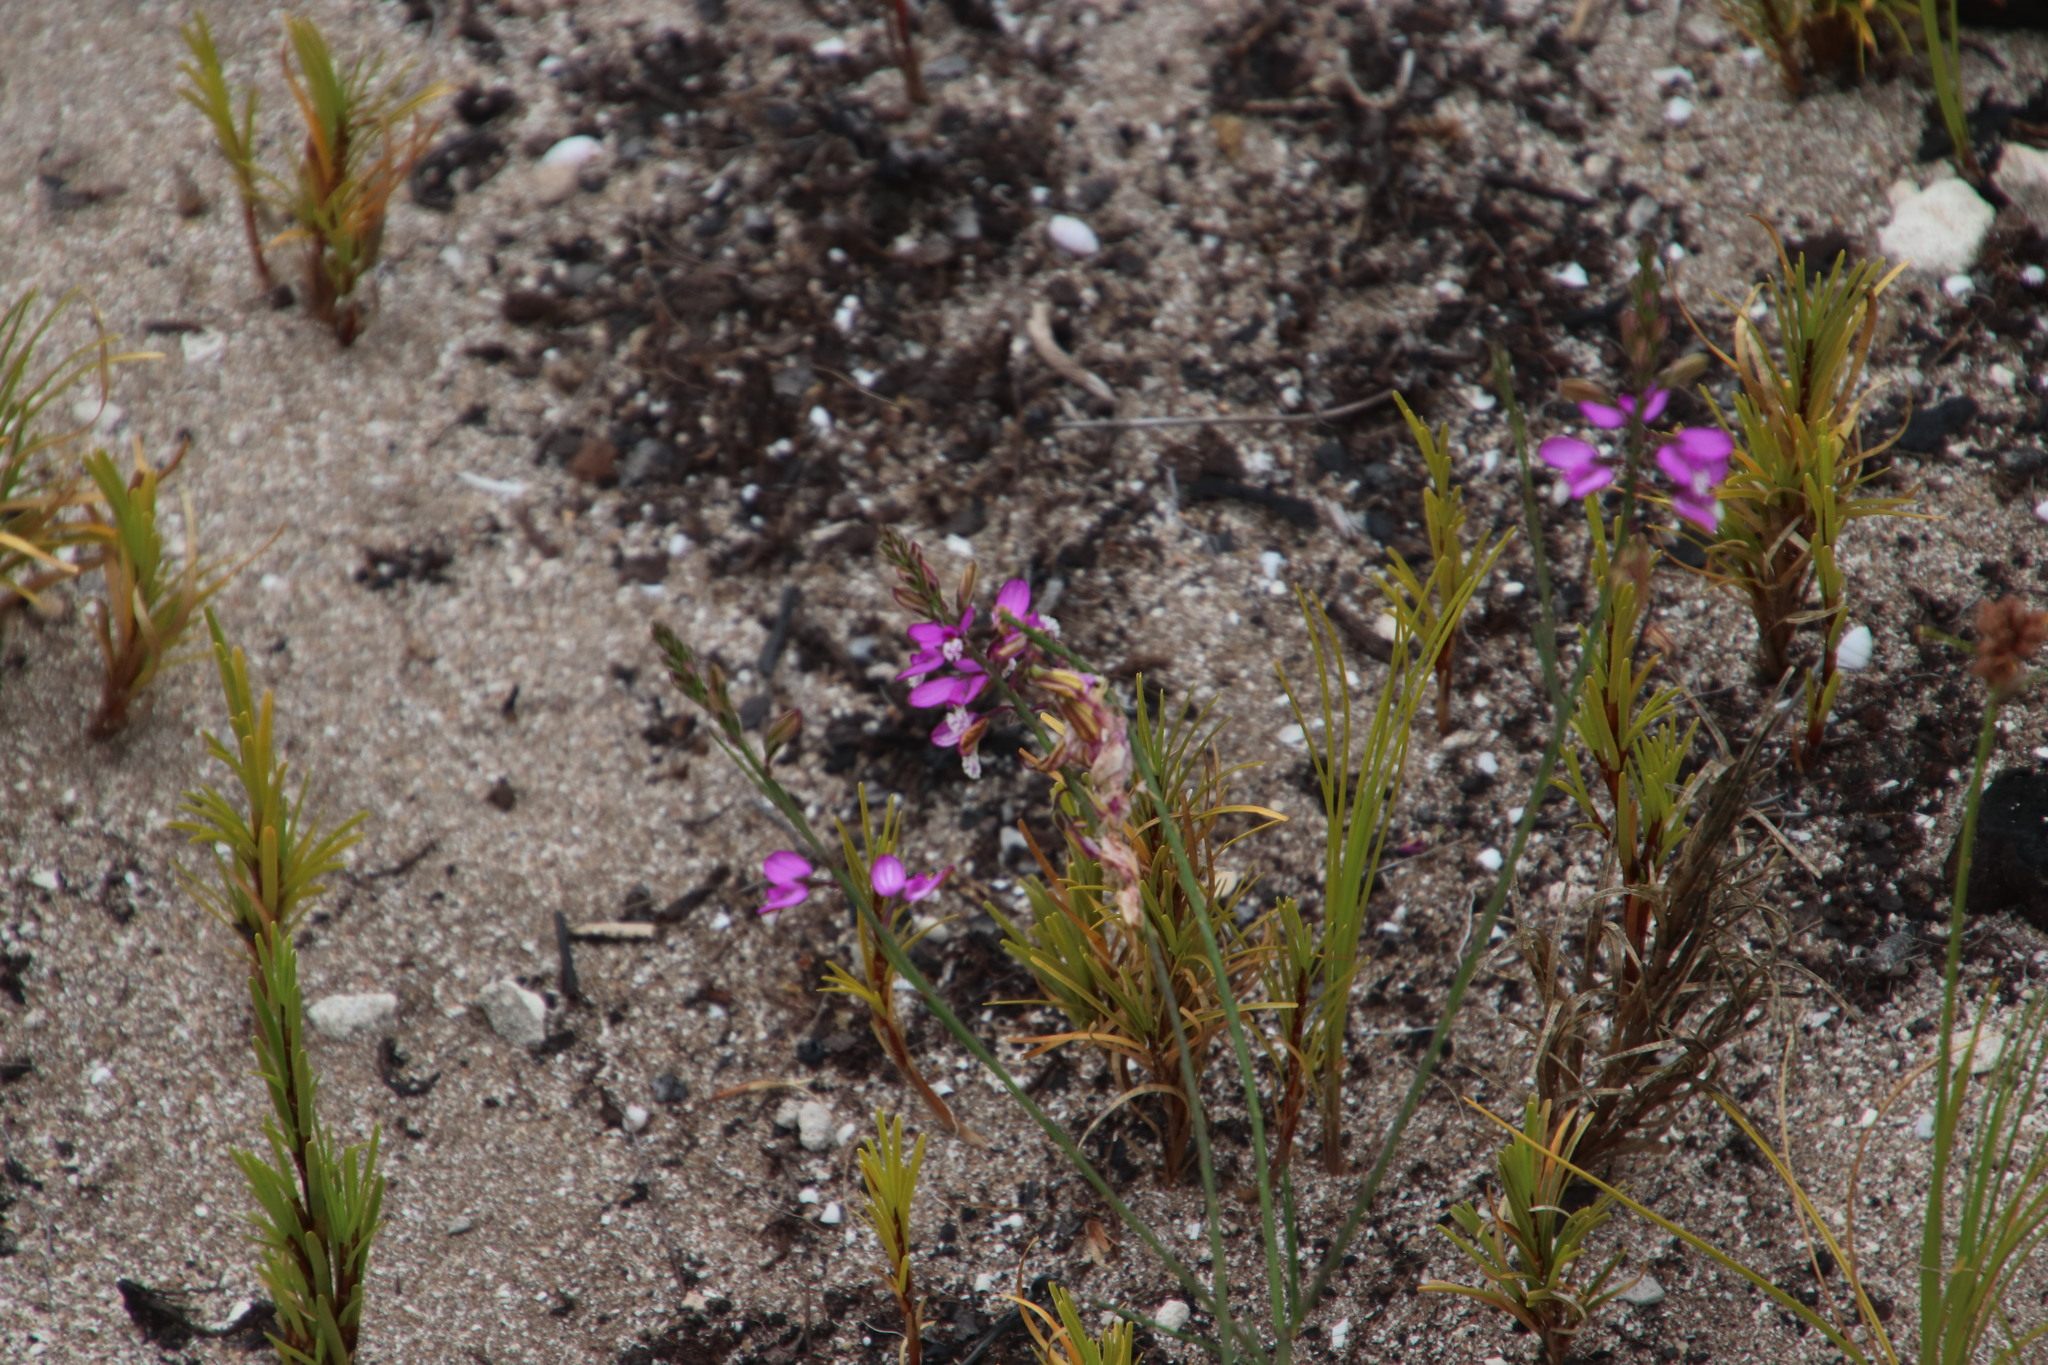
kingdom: Plantae
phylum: Tracheophyta
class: Magnoliopsida
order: Fabales
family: Polygalaceae
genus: Polygala
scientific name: Polygala garcini
